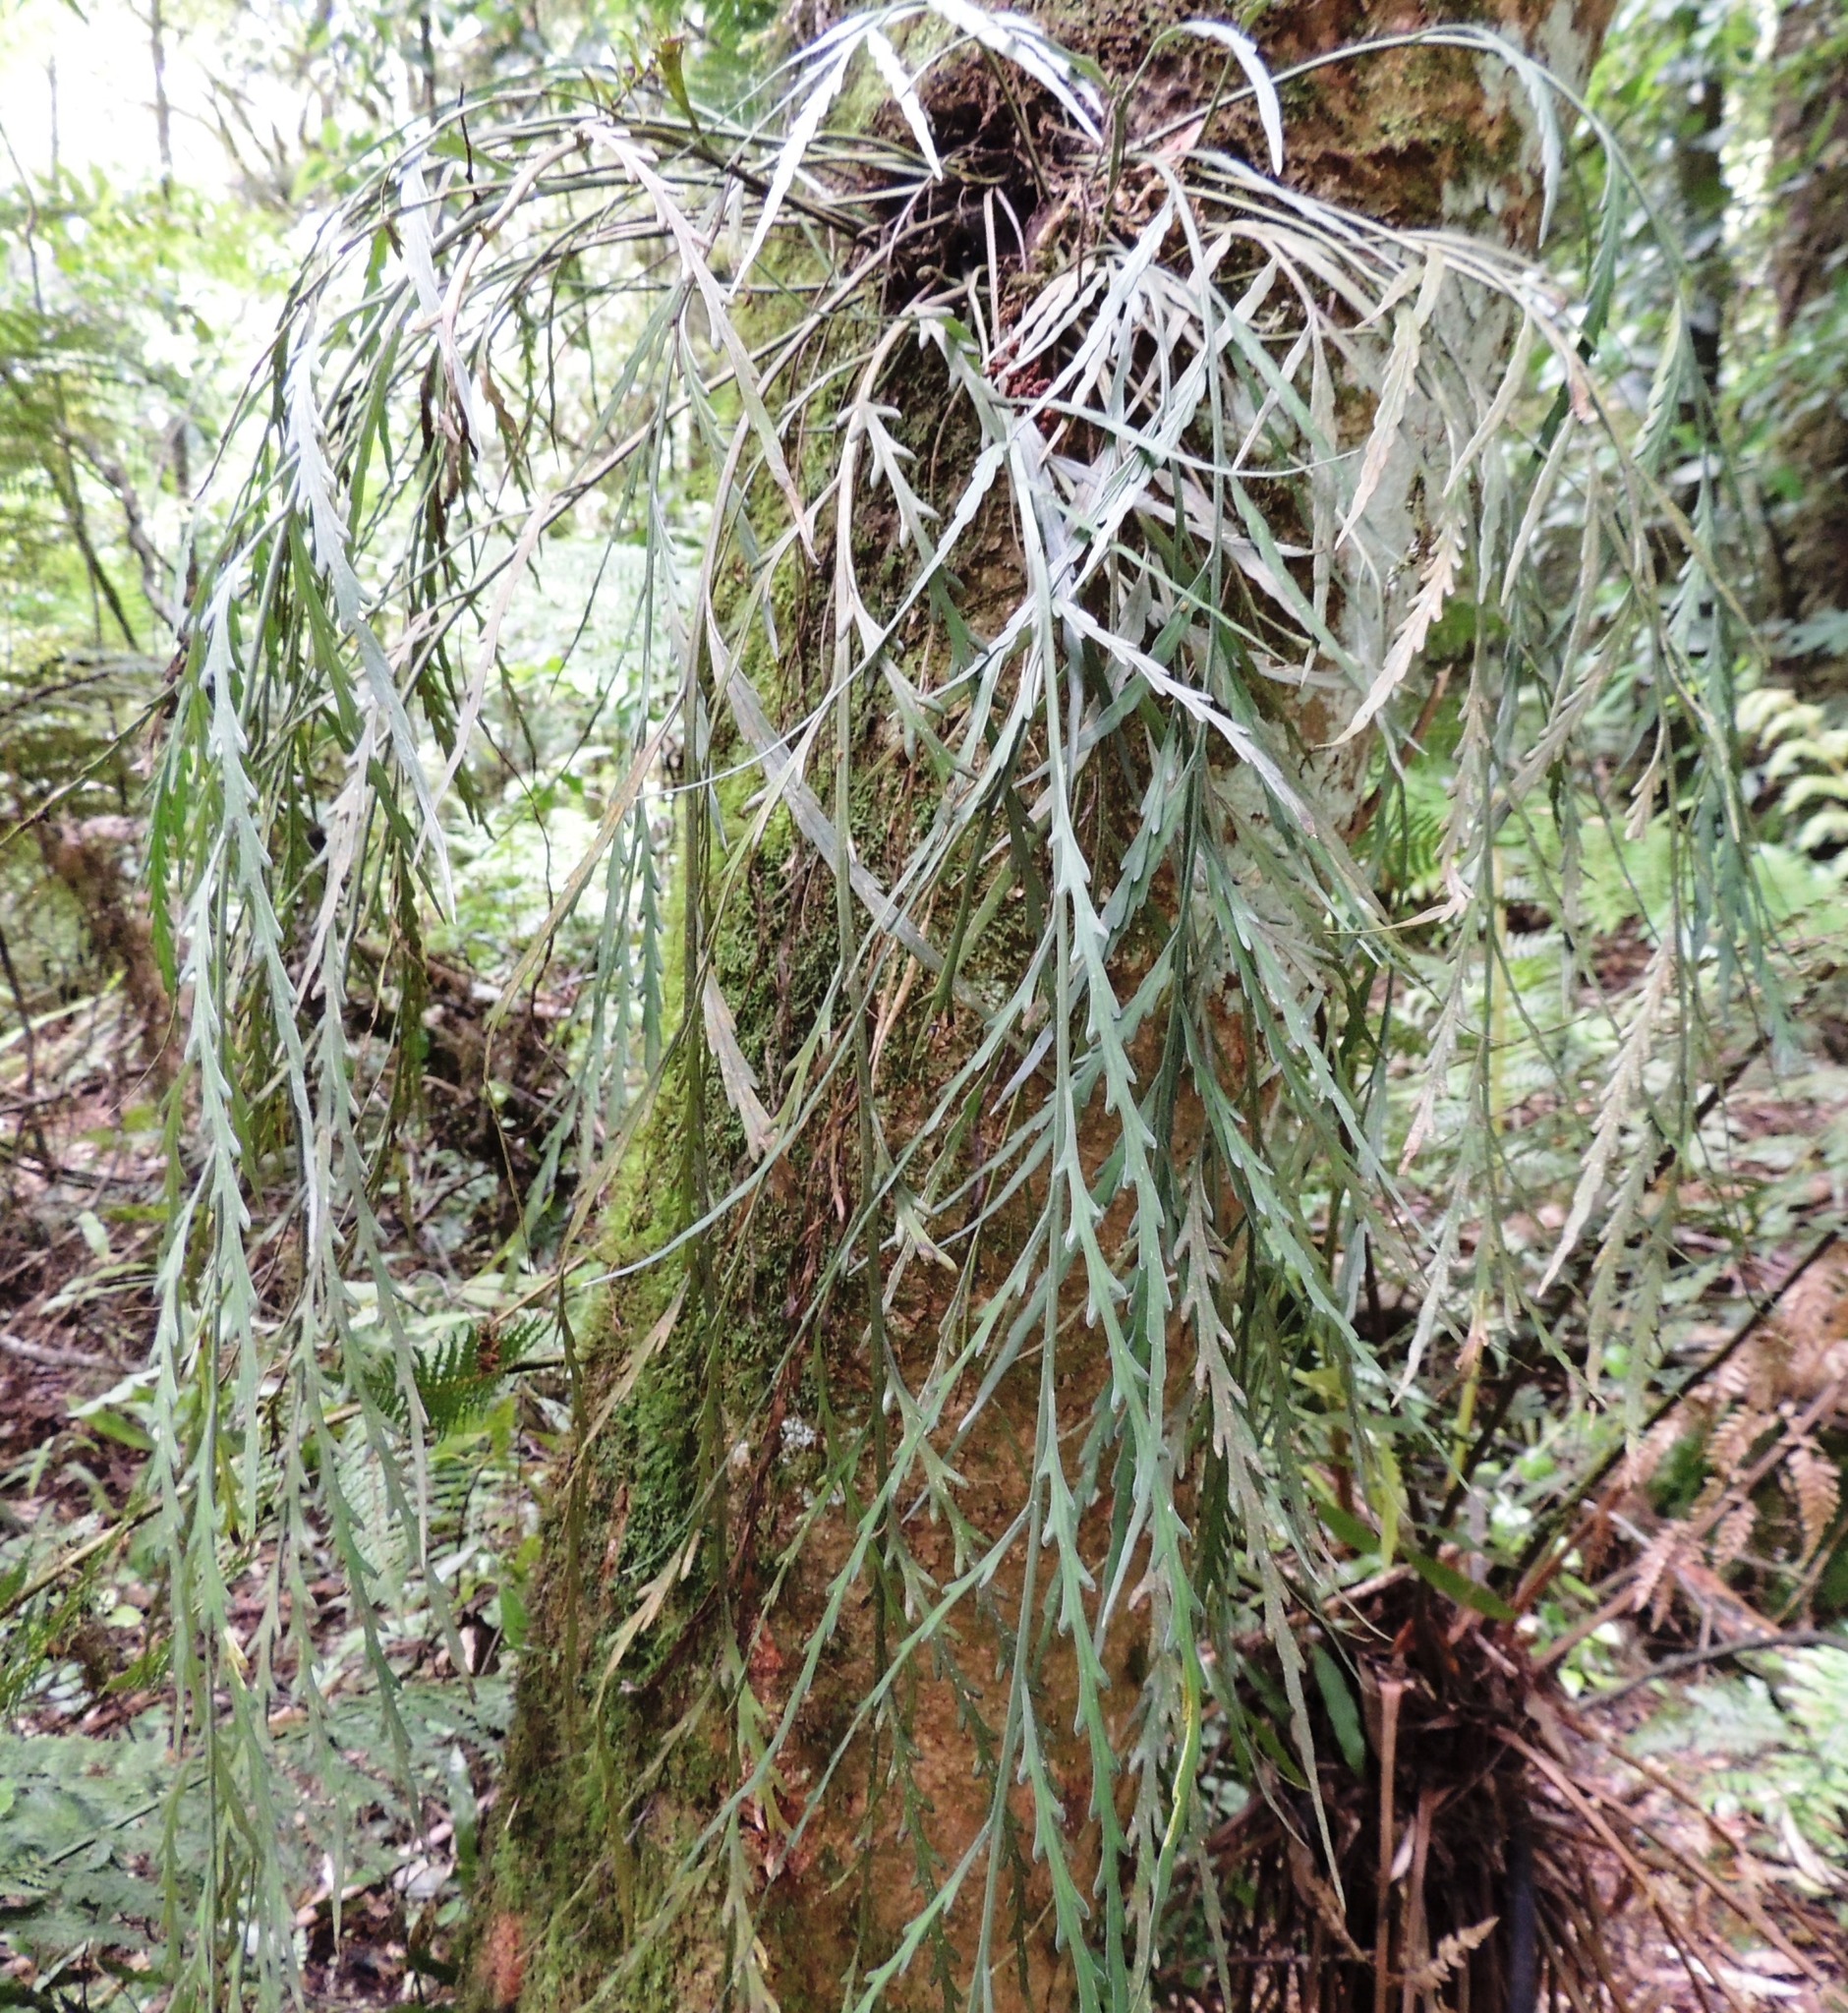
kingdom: Plantae
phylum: Tracheophyta
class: Polypodiopsida
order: Polypodiales
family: Aspleniaceae
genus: Asplenium
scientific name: Asplenium flaccidum
